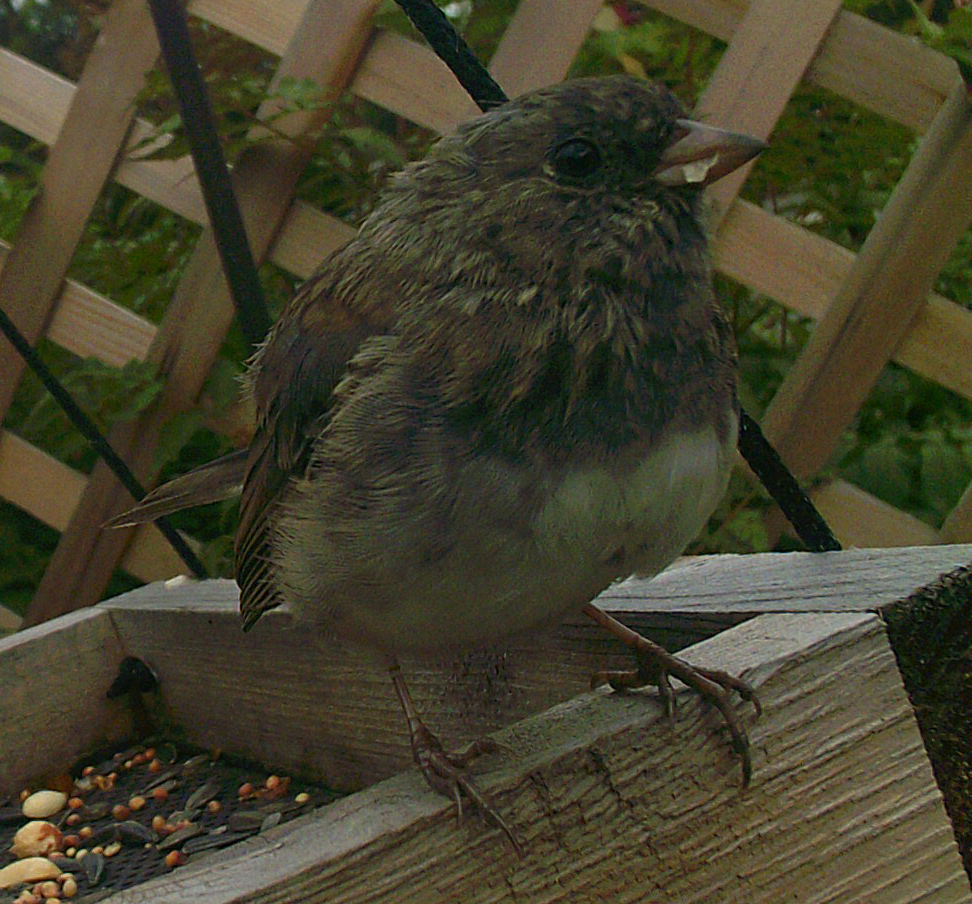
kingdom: Animalia
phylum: Chordata
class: Aves
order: Passeriformes
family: Passerellidae
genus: Junco
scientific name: Junco hyemalis
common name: Dark-eyed junco
